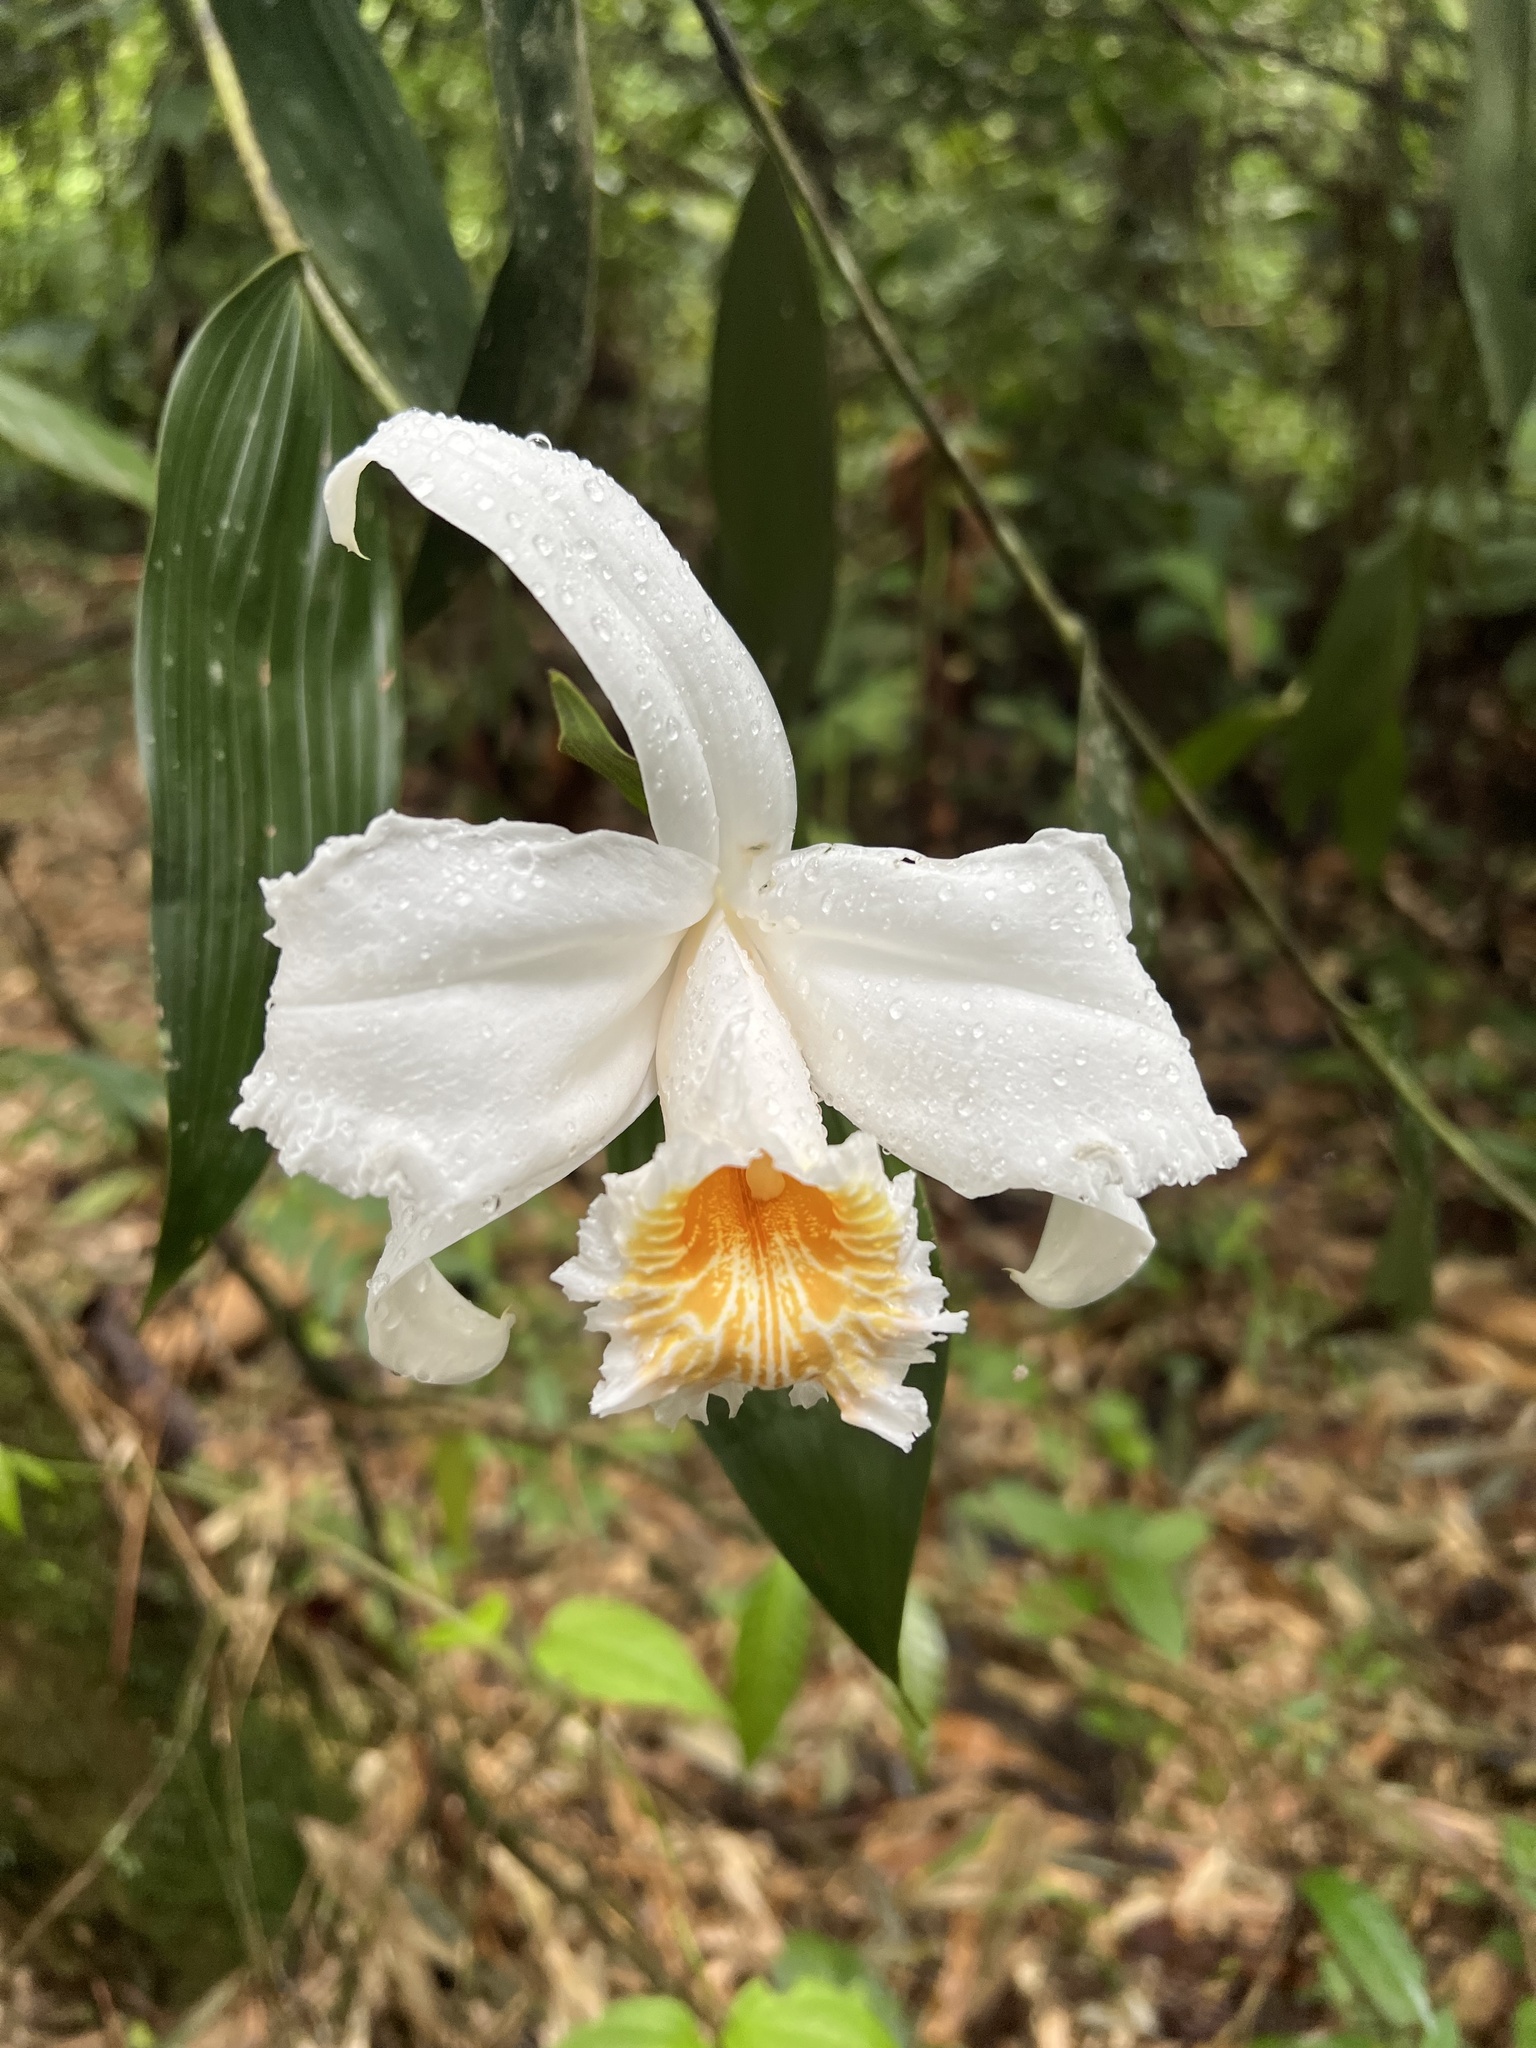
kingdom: Plantae
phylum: Tracheophyta
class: Liliopsida
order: Asparagales
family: Orchidaceae
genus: Sobralia
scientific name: Sobralia chrysostoma
